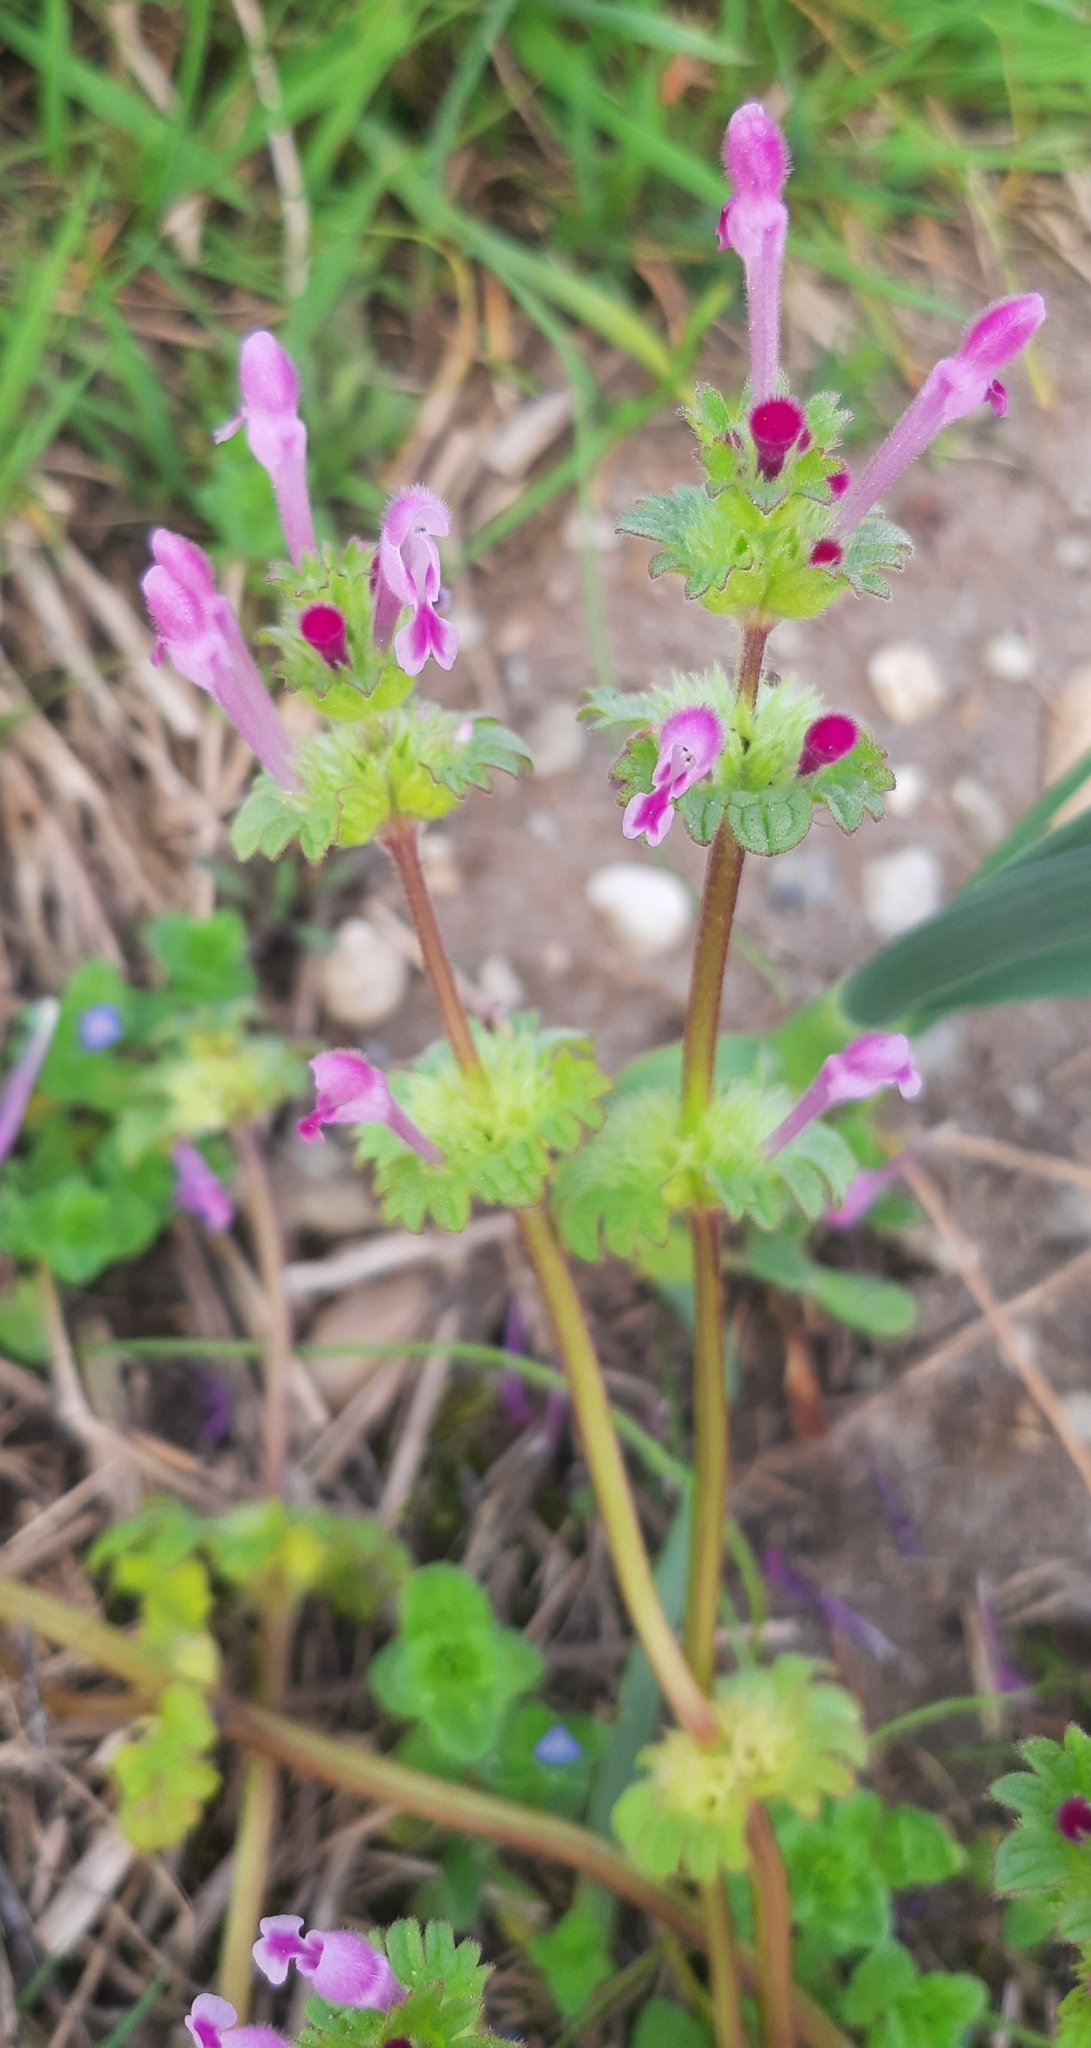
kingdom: Plantae
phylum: Tracheophyta
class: Magnoliopsida
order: Lamiales
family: Lamiaceae
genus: Lamium
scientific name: Lamium amplexicaule
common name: Henbit dead-nettle
